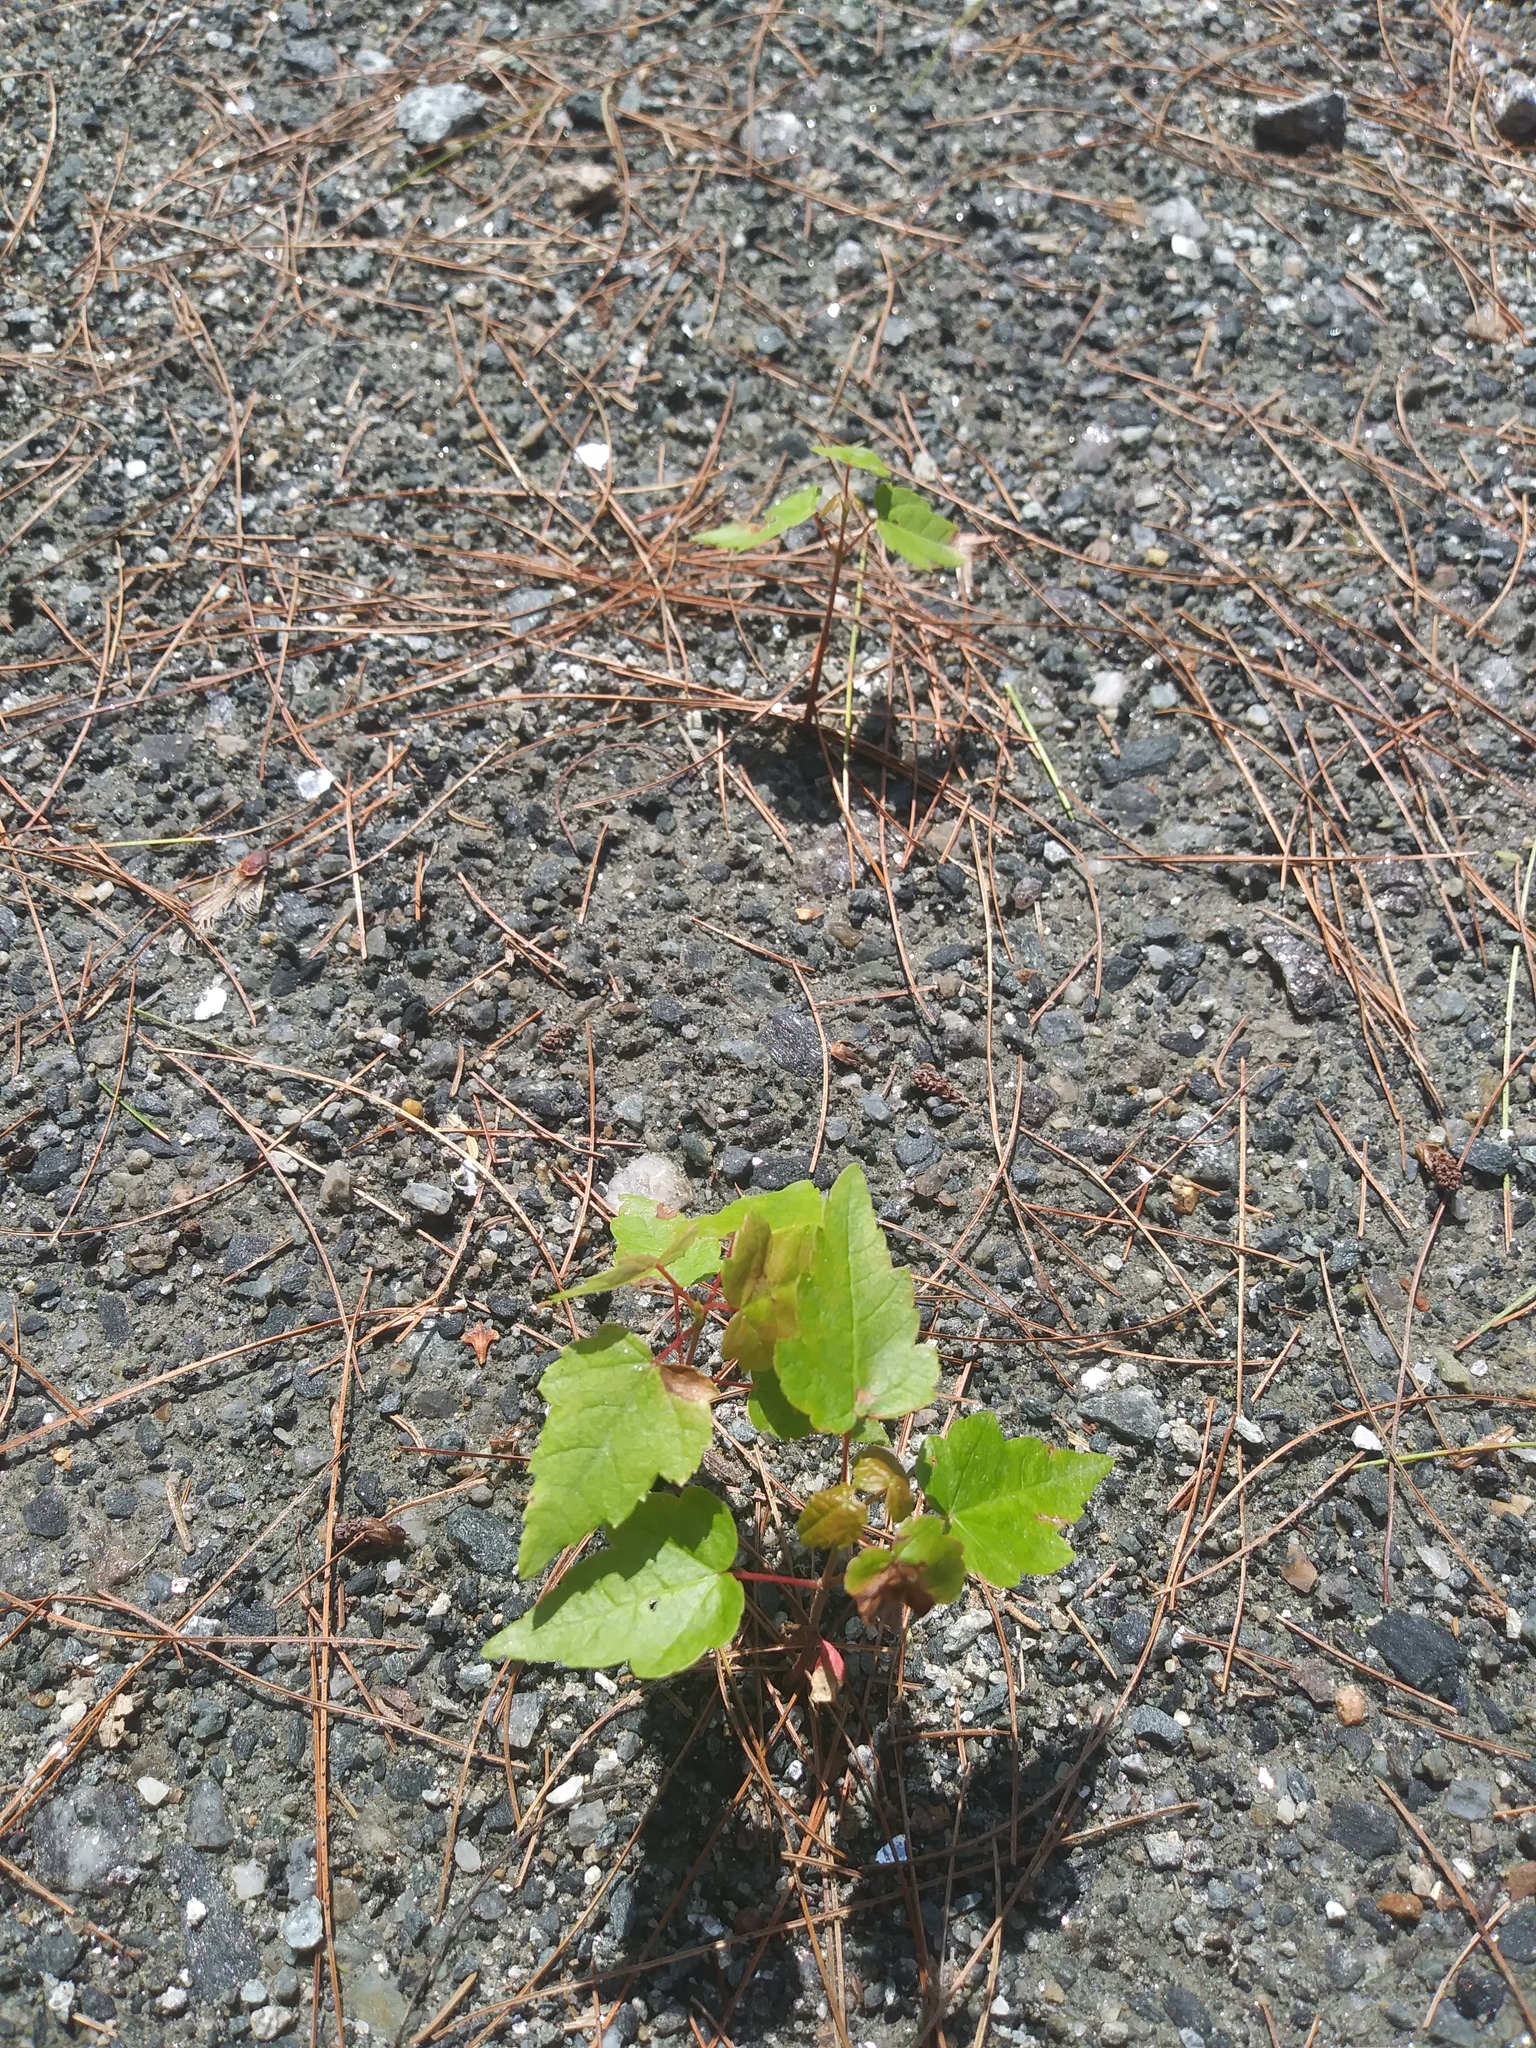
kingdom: Plantae
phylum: Tracheophyta
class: Magnoliopsida
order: Sapindales
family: Sapindaceae
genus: Acer
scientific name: Acer rubrum
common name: Red maple
